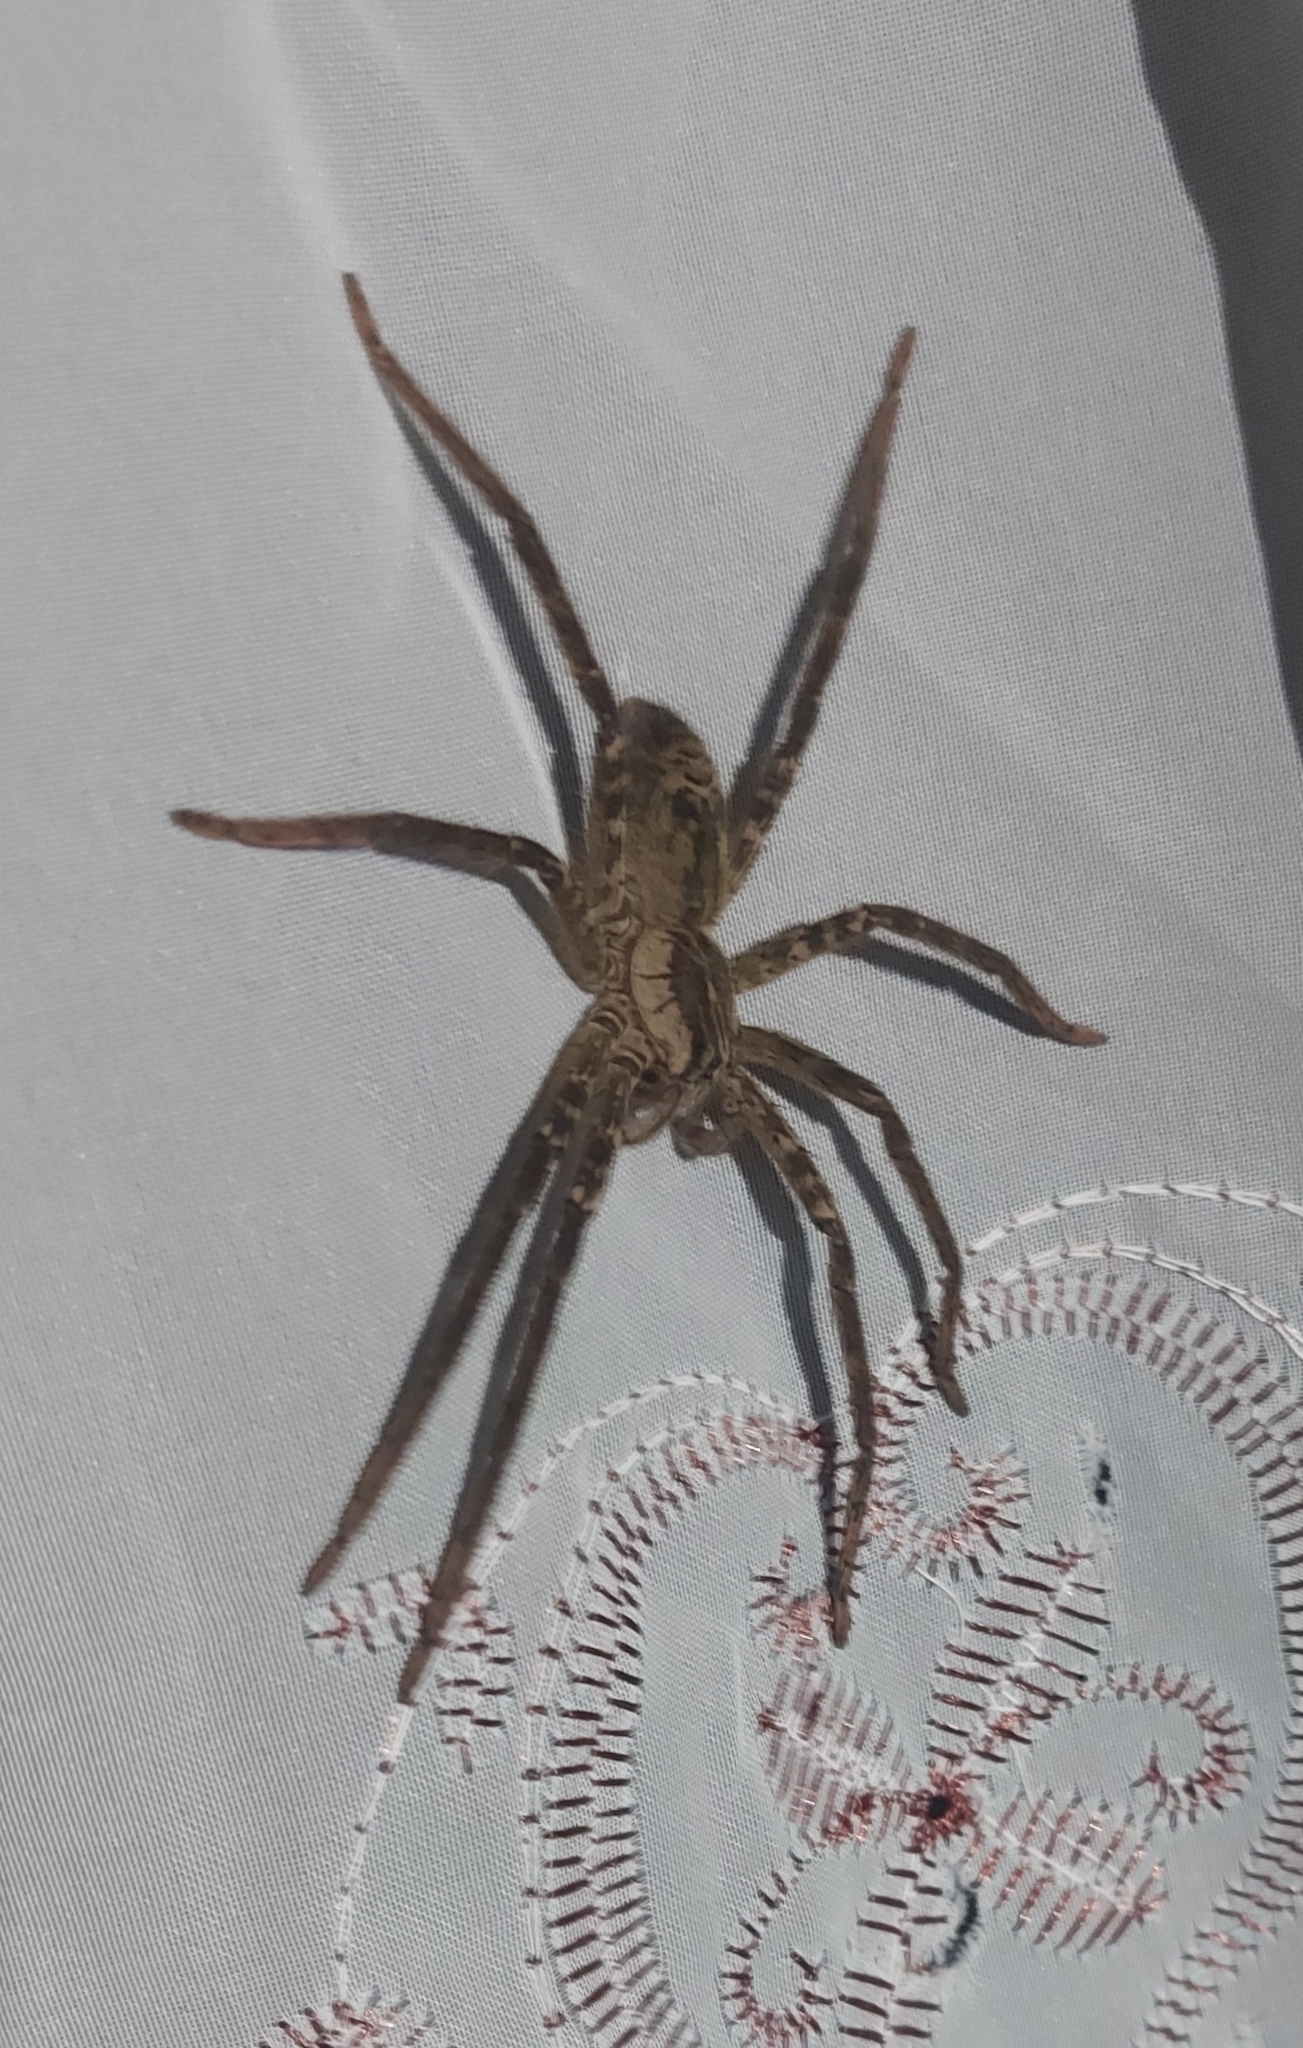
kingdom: Animalia
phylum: Arthropoda
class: Arachnida
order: Araneae
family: Trechaleidae
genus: Cupiennius
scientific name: Cupiennius coccineus
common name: Wandering spiders
